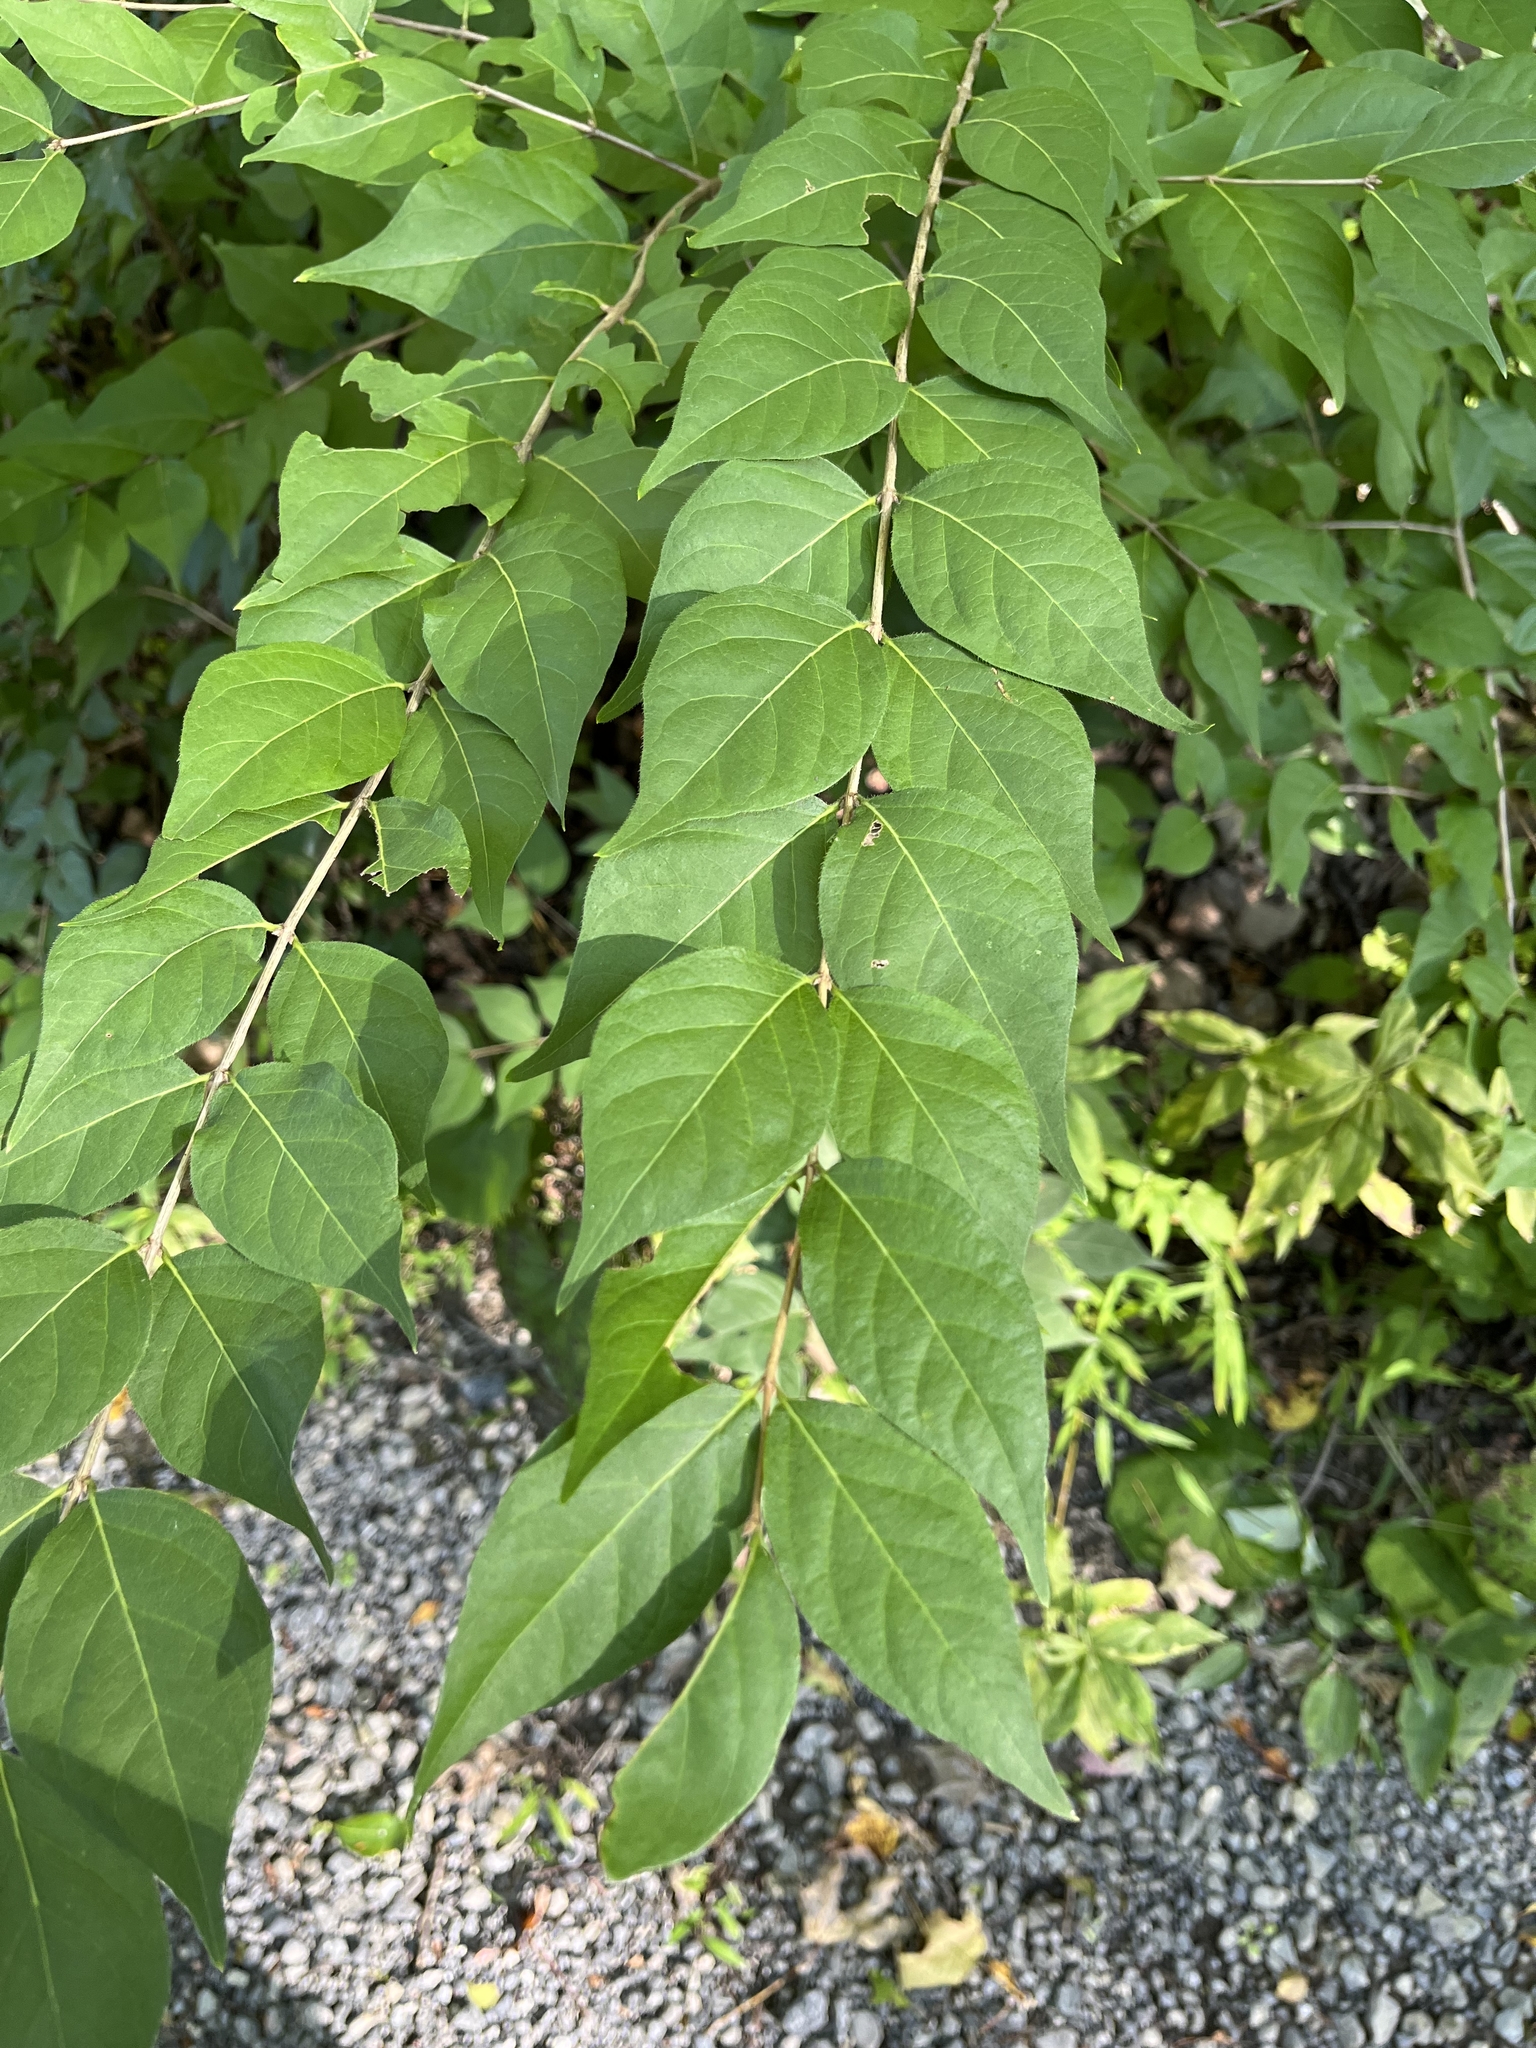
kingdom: Plantae
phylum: Tracheophyta
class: Magnoliopsida
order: Dipsacales
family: Caprifoliaceae
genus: Lonicera
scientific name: Lonicera maackii
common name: Amur honeysuckle
